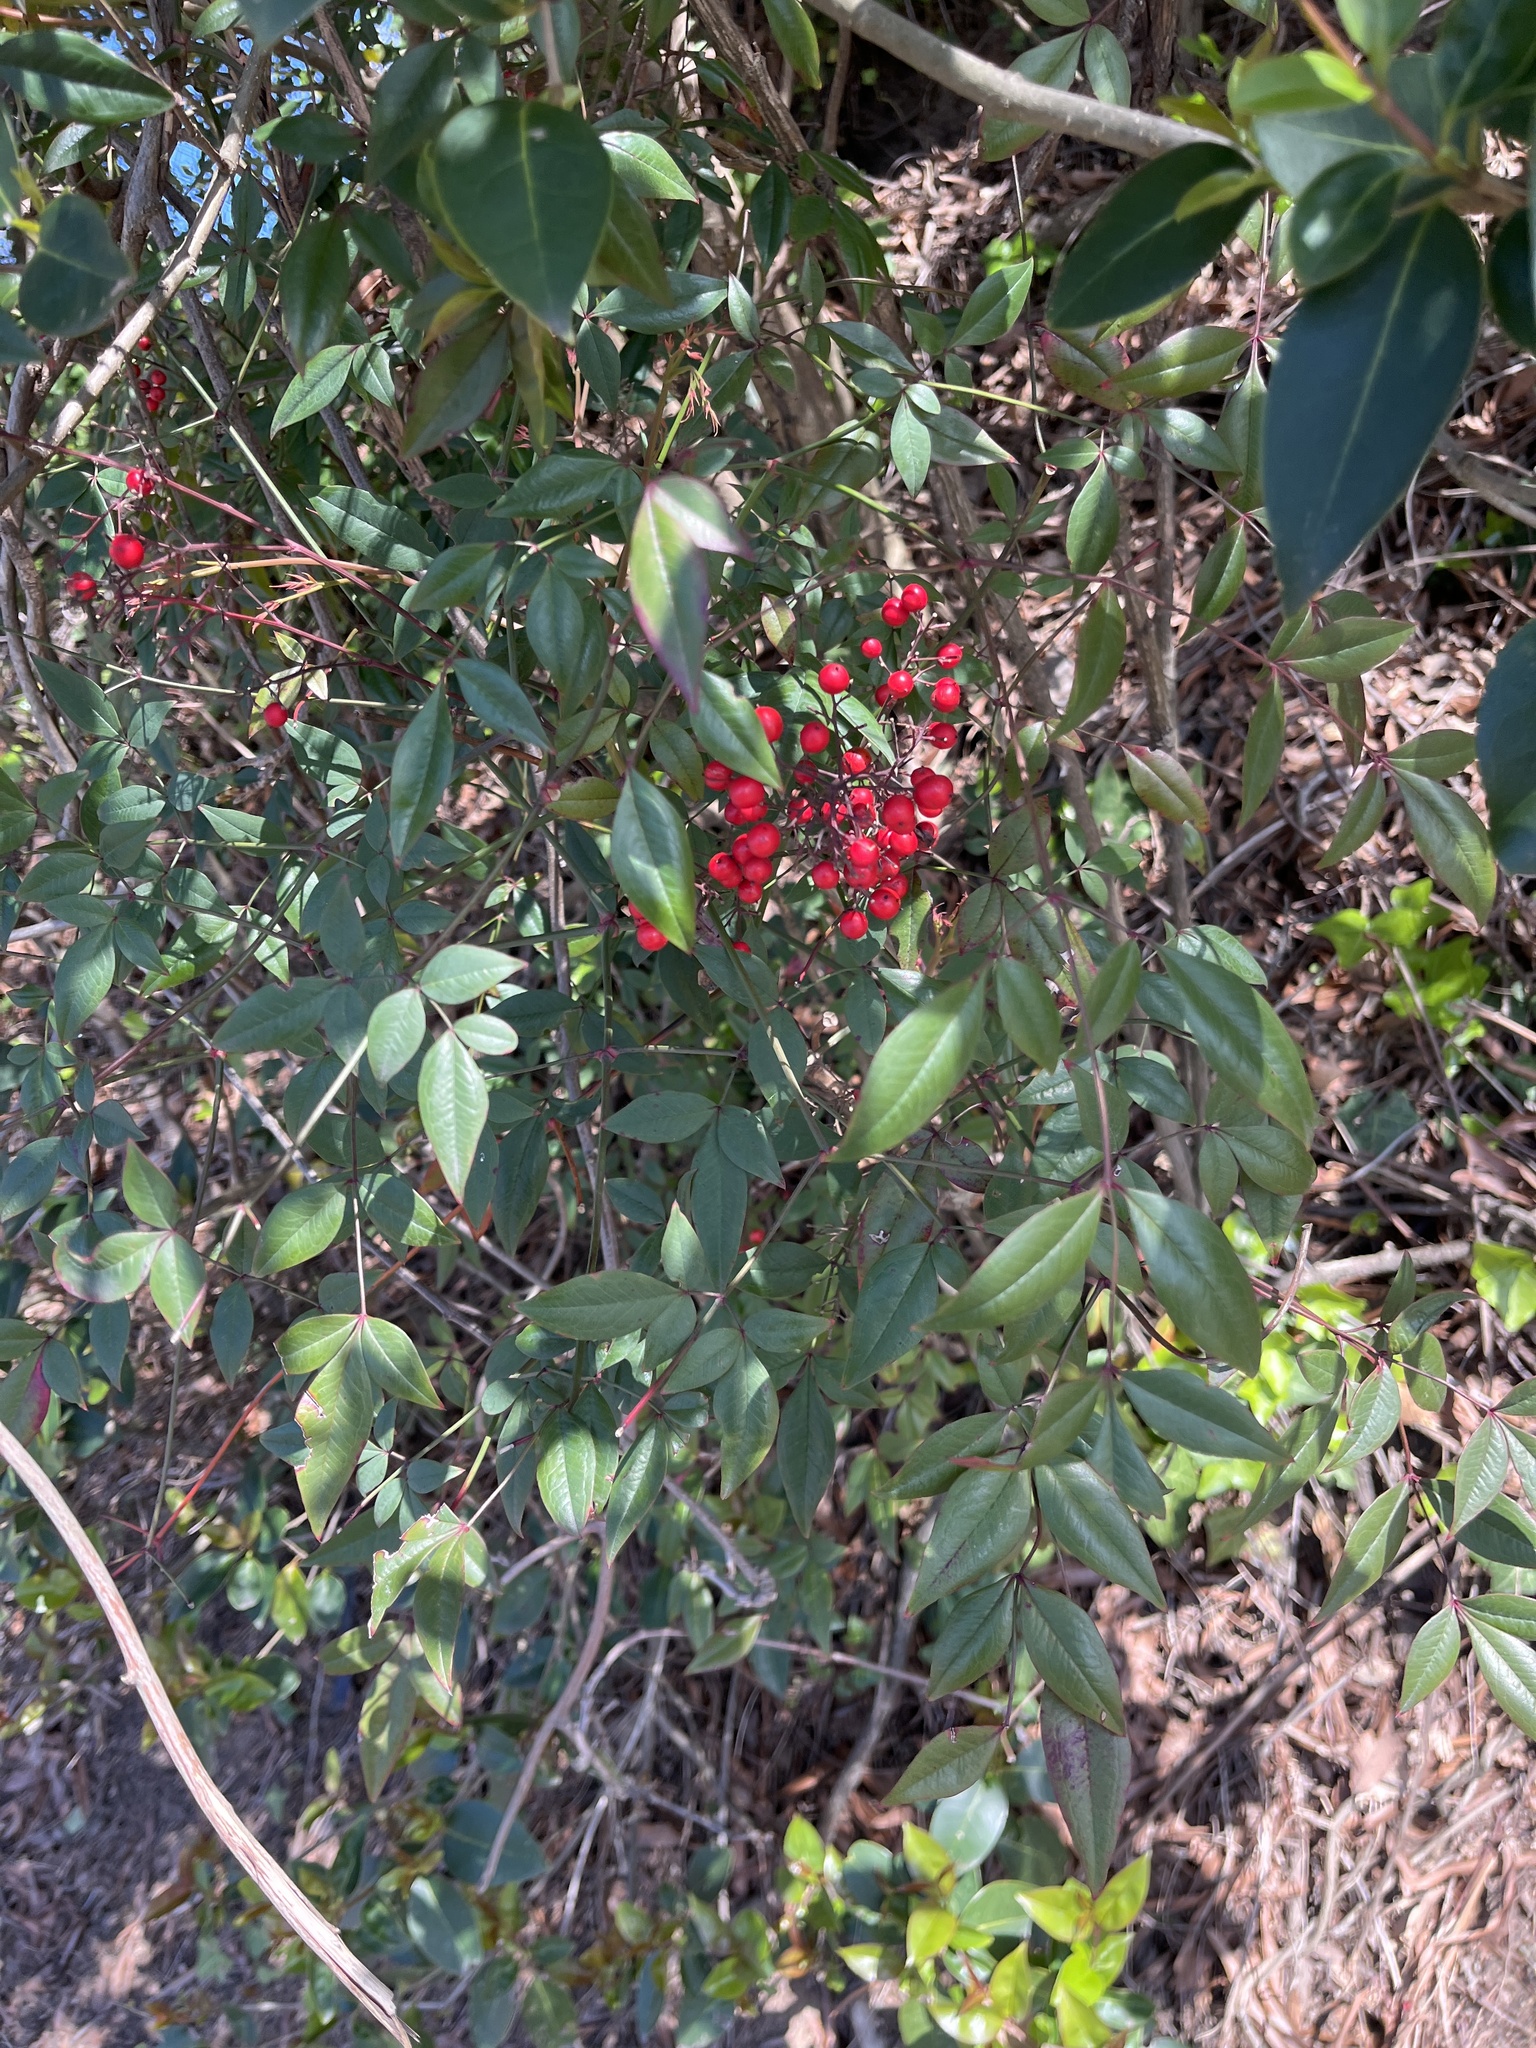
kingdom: Plantae
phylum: Tracheophyta
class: Magnoliopsida
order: Ranunculales
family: Berberidaceae
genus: Nandina
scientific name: Nandina domestica
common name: Sacred bamboo
